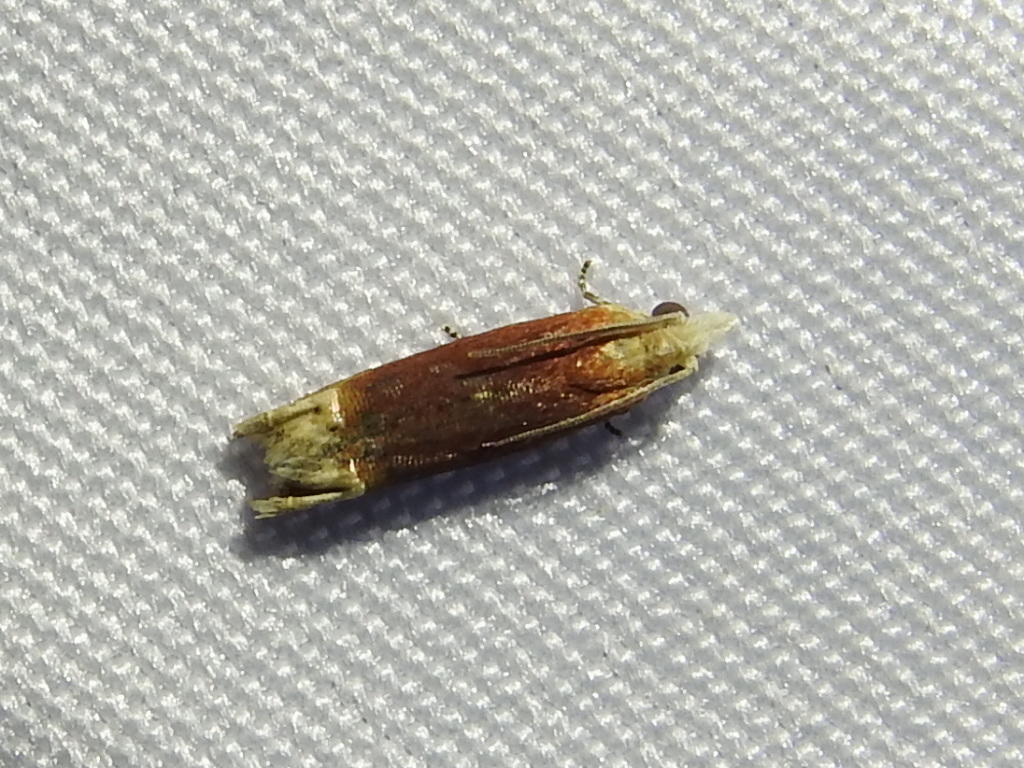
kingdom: Animalia
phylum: Arthropoda
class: Insecta
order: Lepidoptera
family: Tortricidae
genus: Eucosma
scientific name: Eucosma raracana
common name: Reddish eucosma moth
